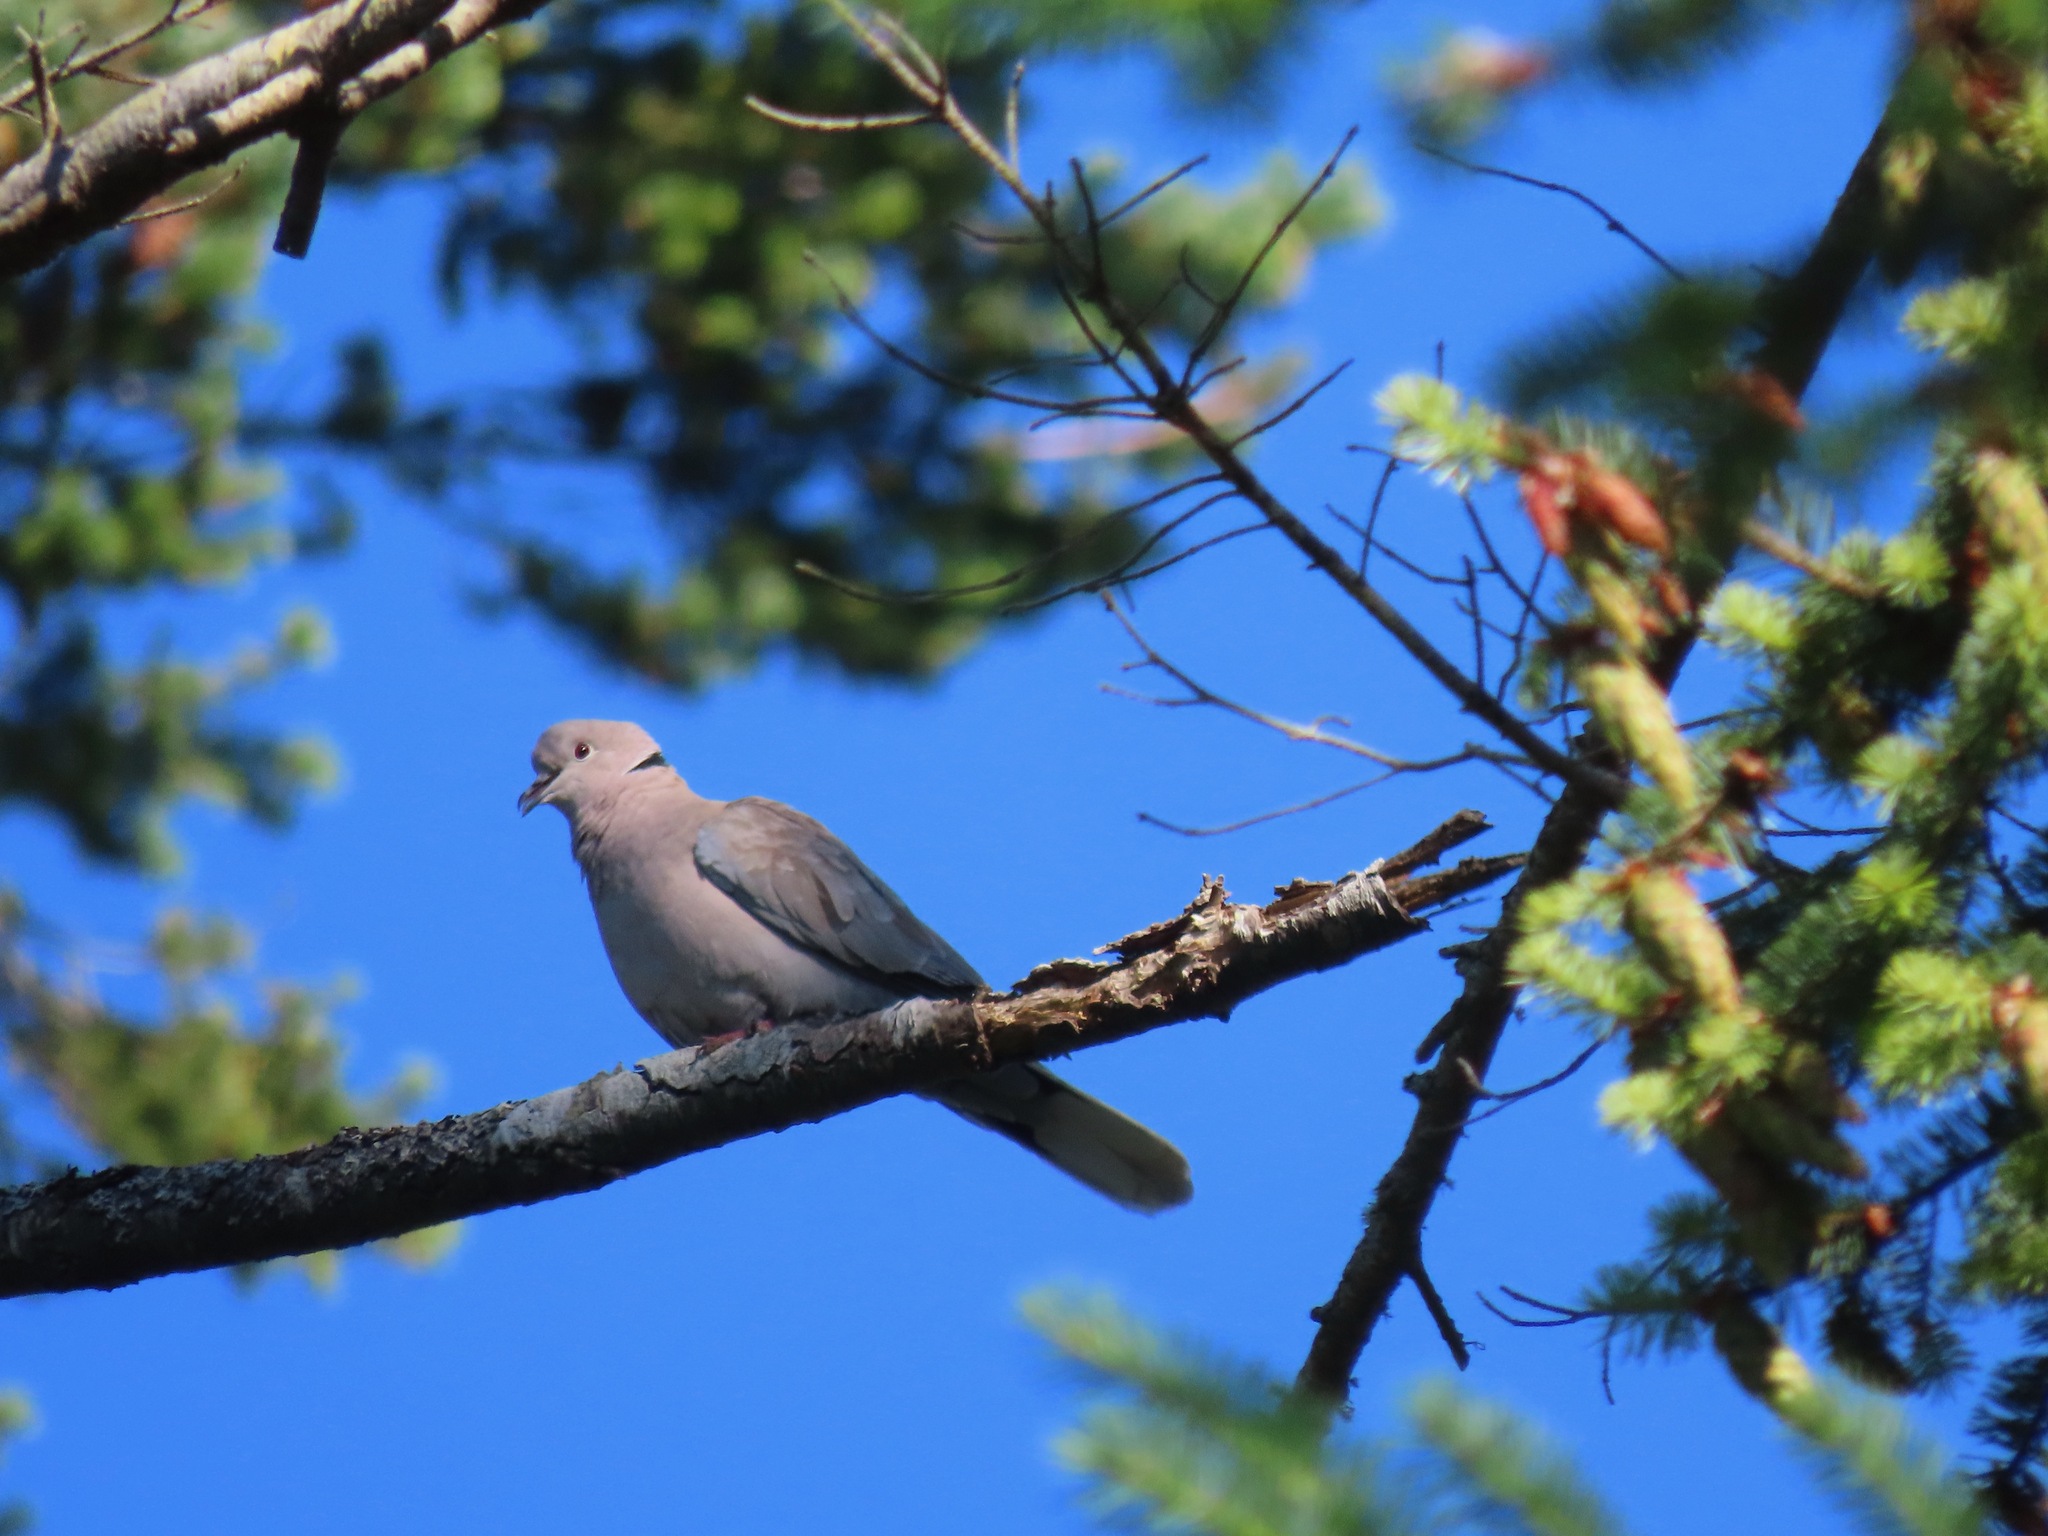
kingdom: Animalia
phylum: Chordata
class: Aves
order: Columbiformes
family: Columbidae
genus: Streptopelia
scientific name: Streptopelia decaocto
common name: Eurasian collared dove
